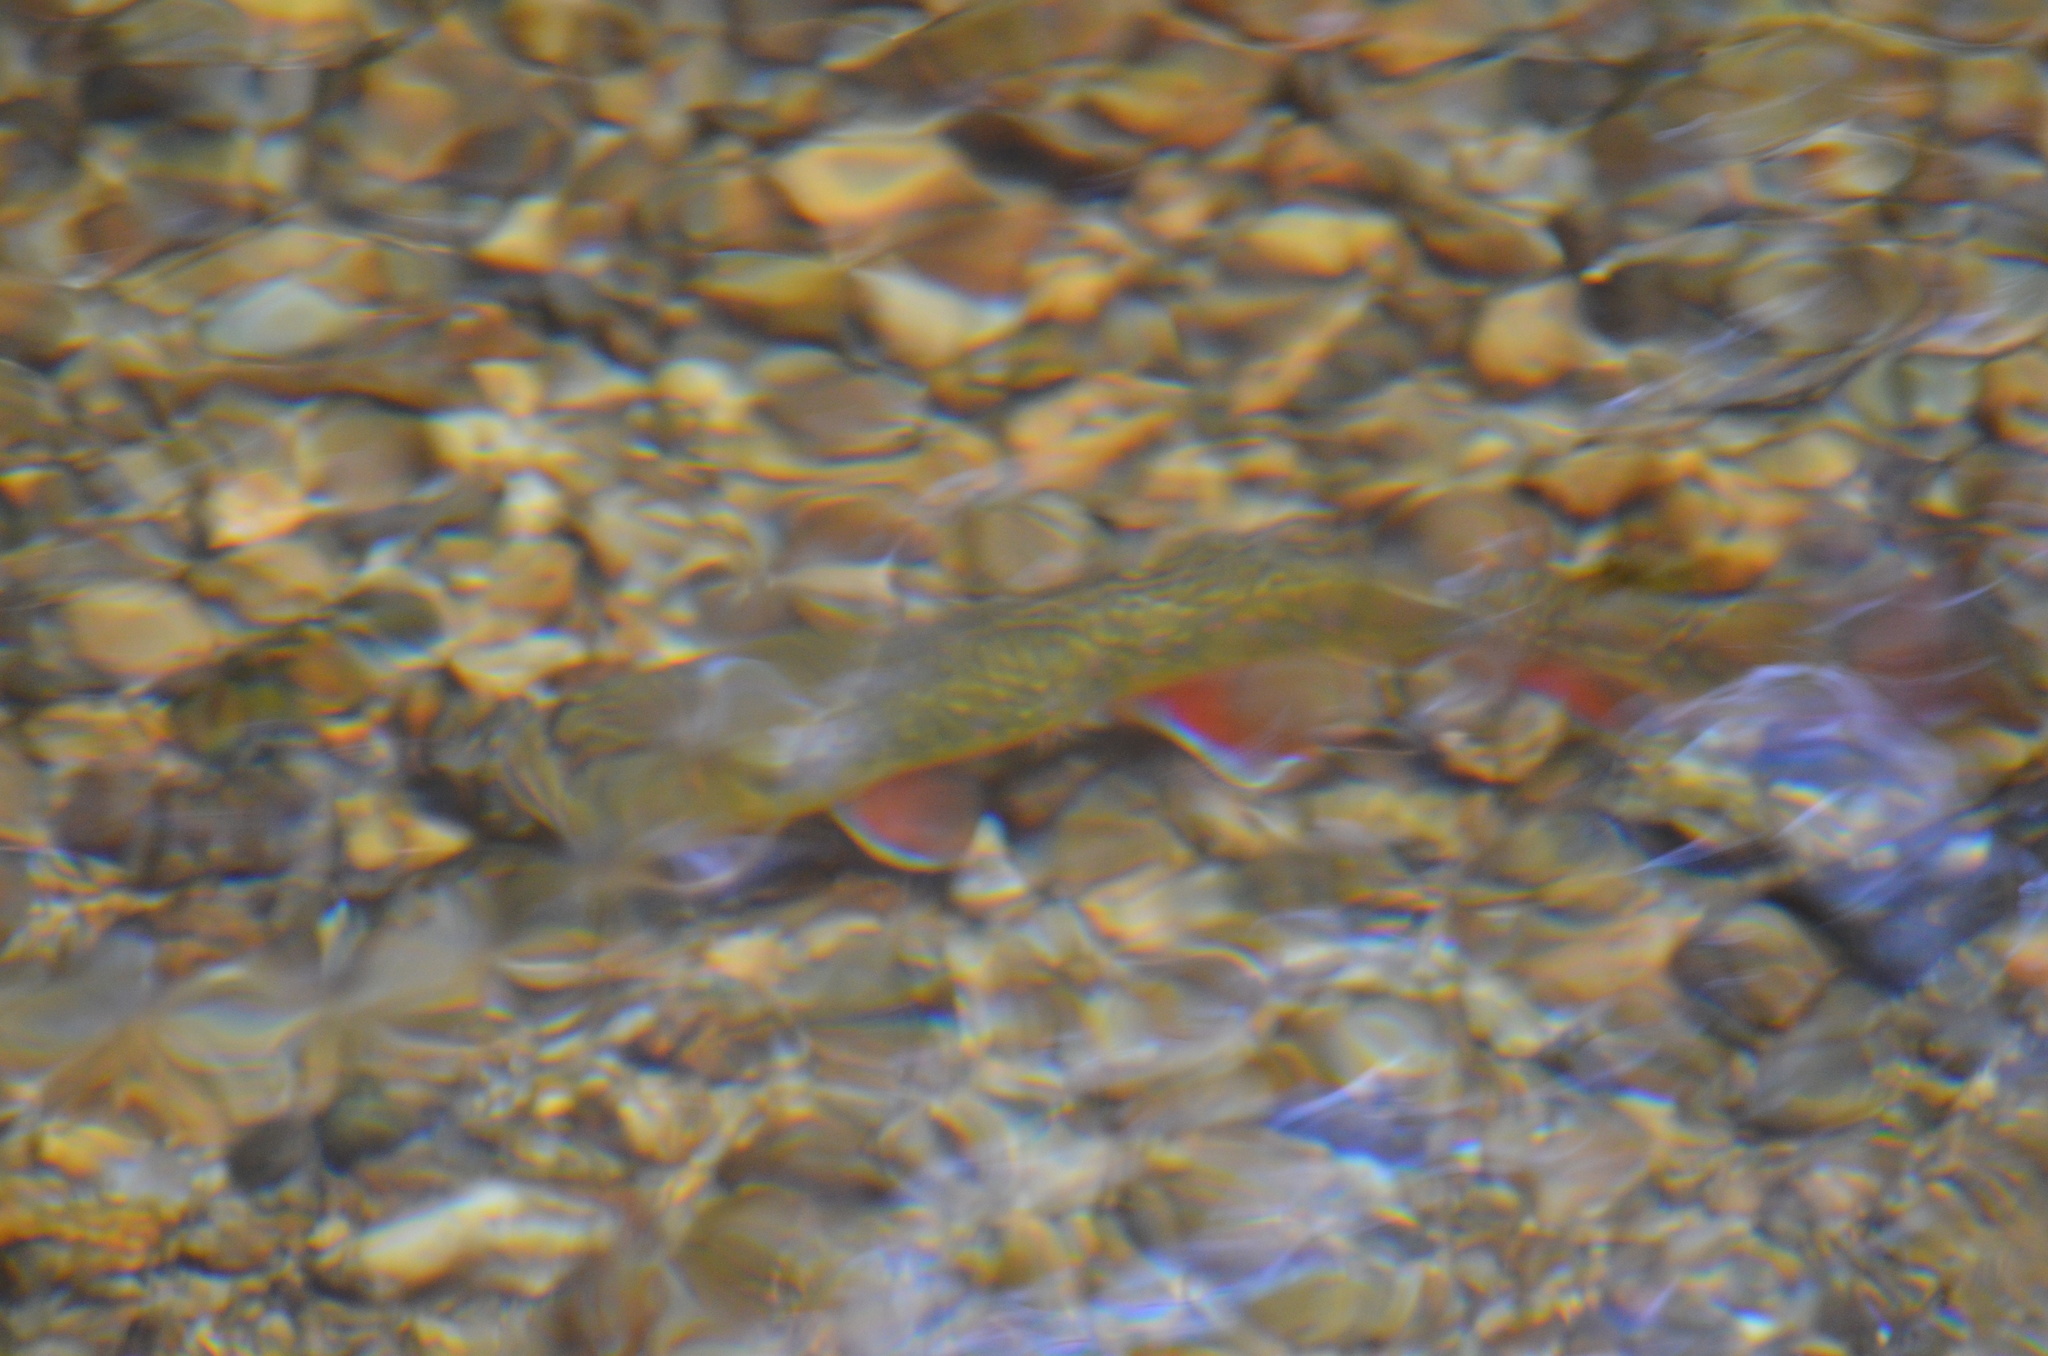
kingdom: Animalia
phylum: Chordata
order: Salmoniformes
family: Salmonidae
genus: Salvelinus
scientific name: Salvelinus fontinalis
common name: Brook trout
